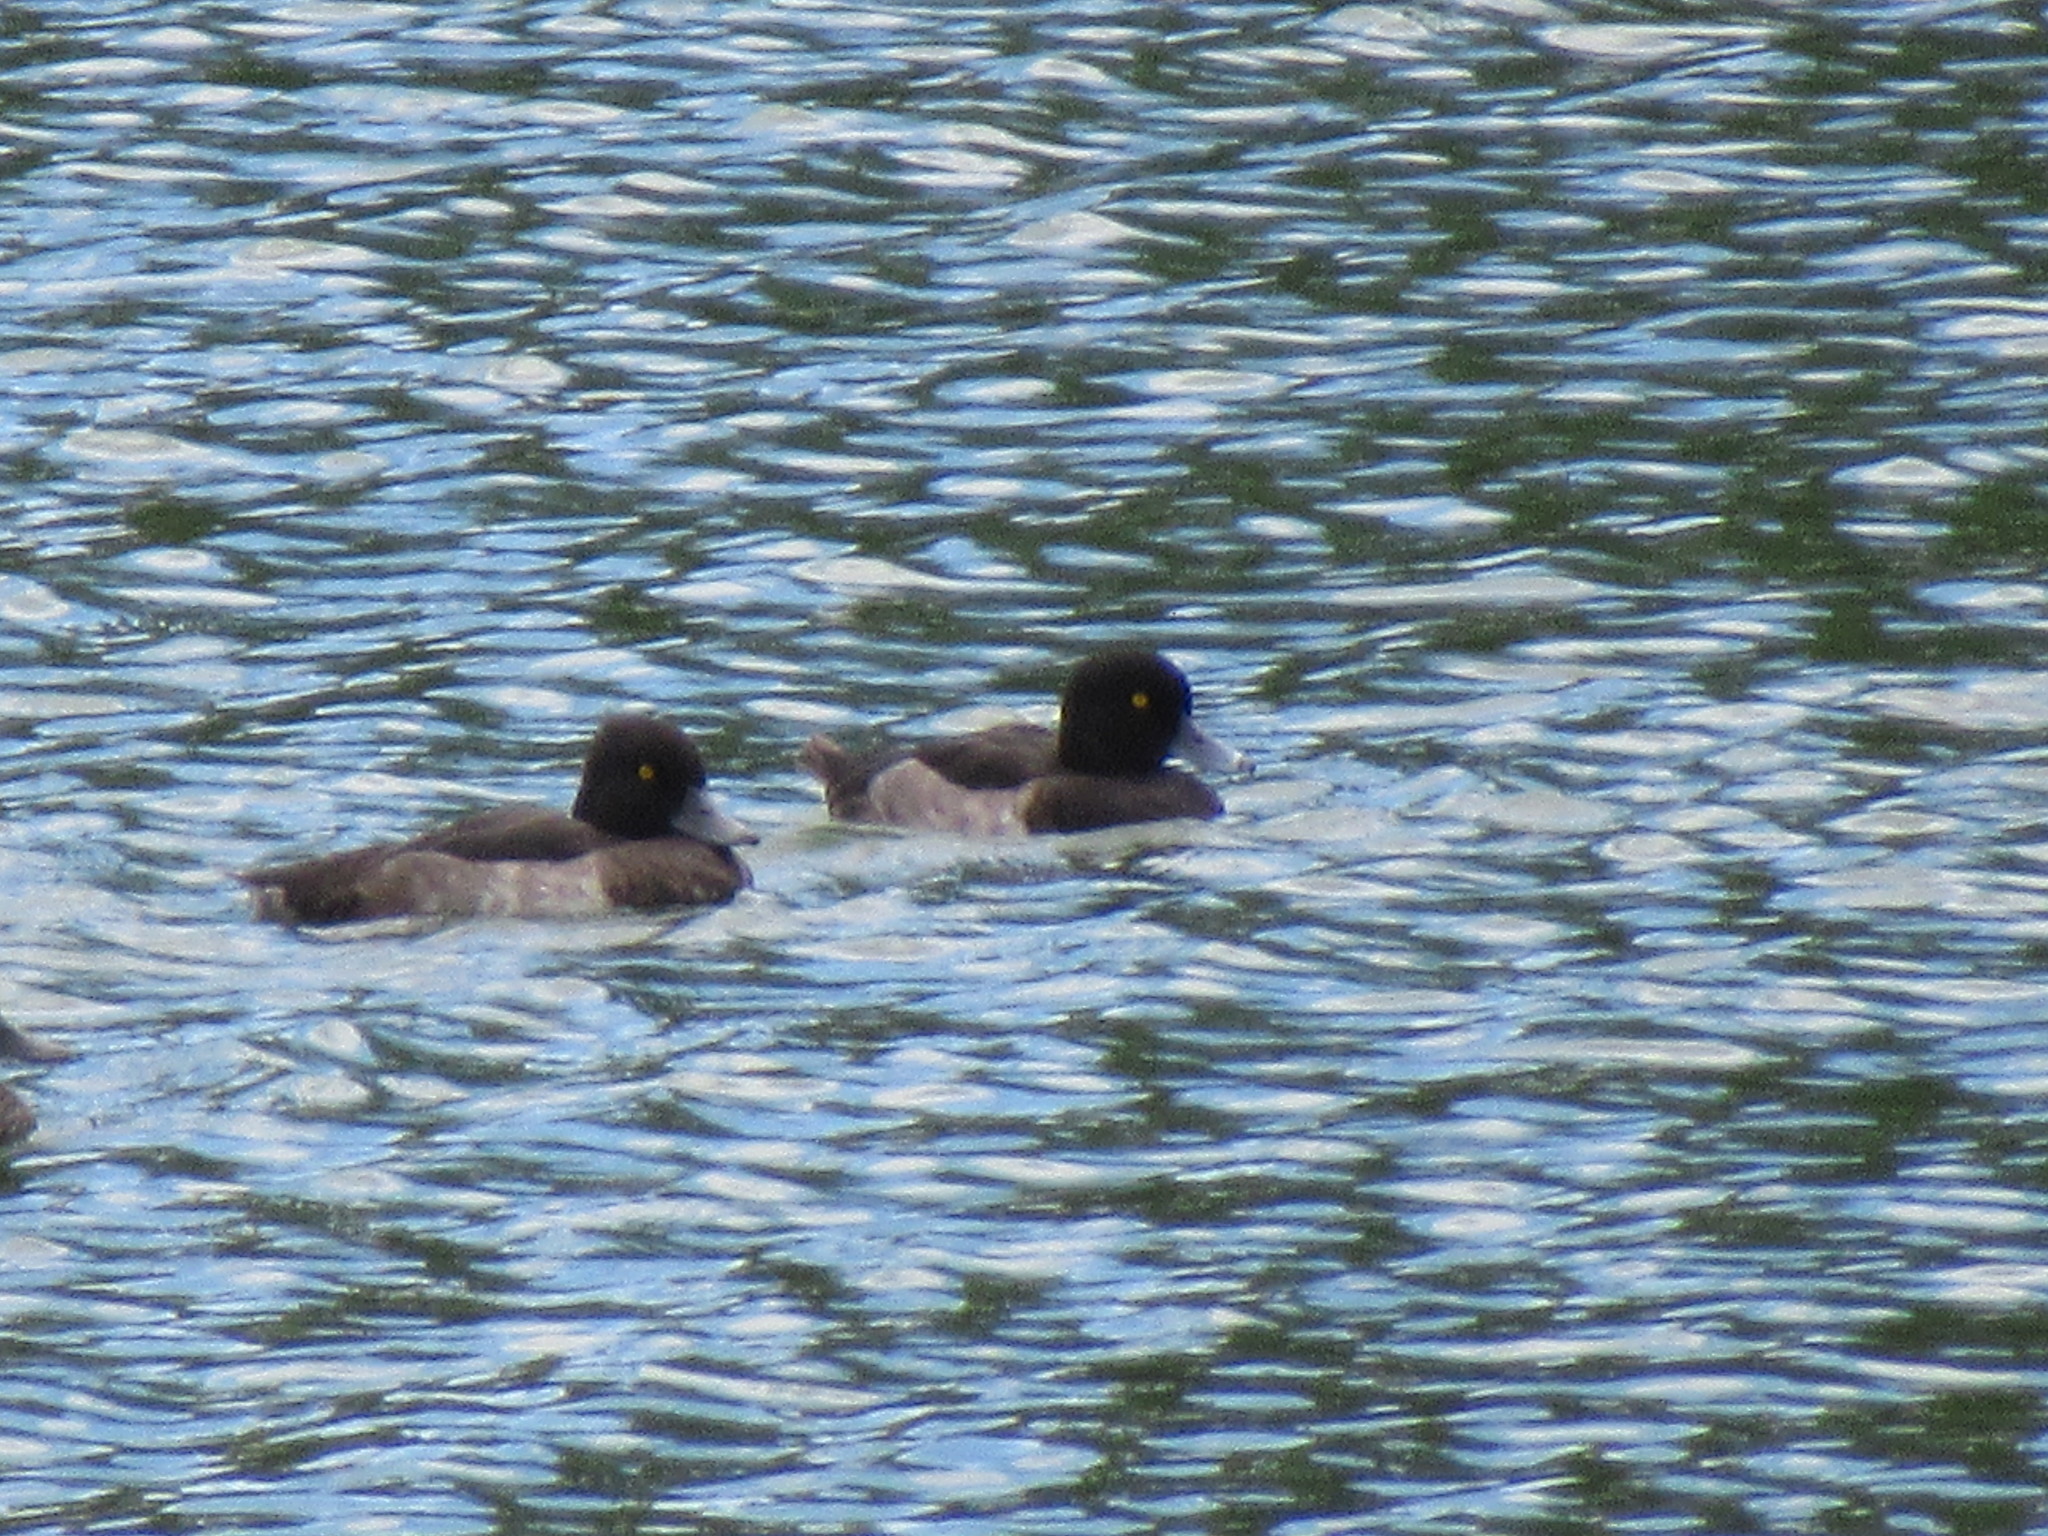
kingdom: Animalia
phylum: Chordata
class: Aves
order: Anseriformes
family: Anatidae
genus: Aythya
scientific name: Aythya fuligula
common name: Tufted duck
